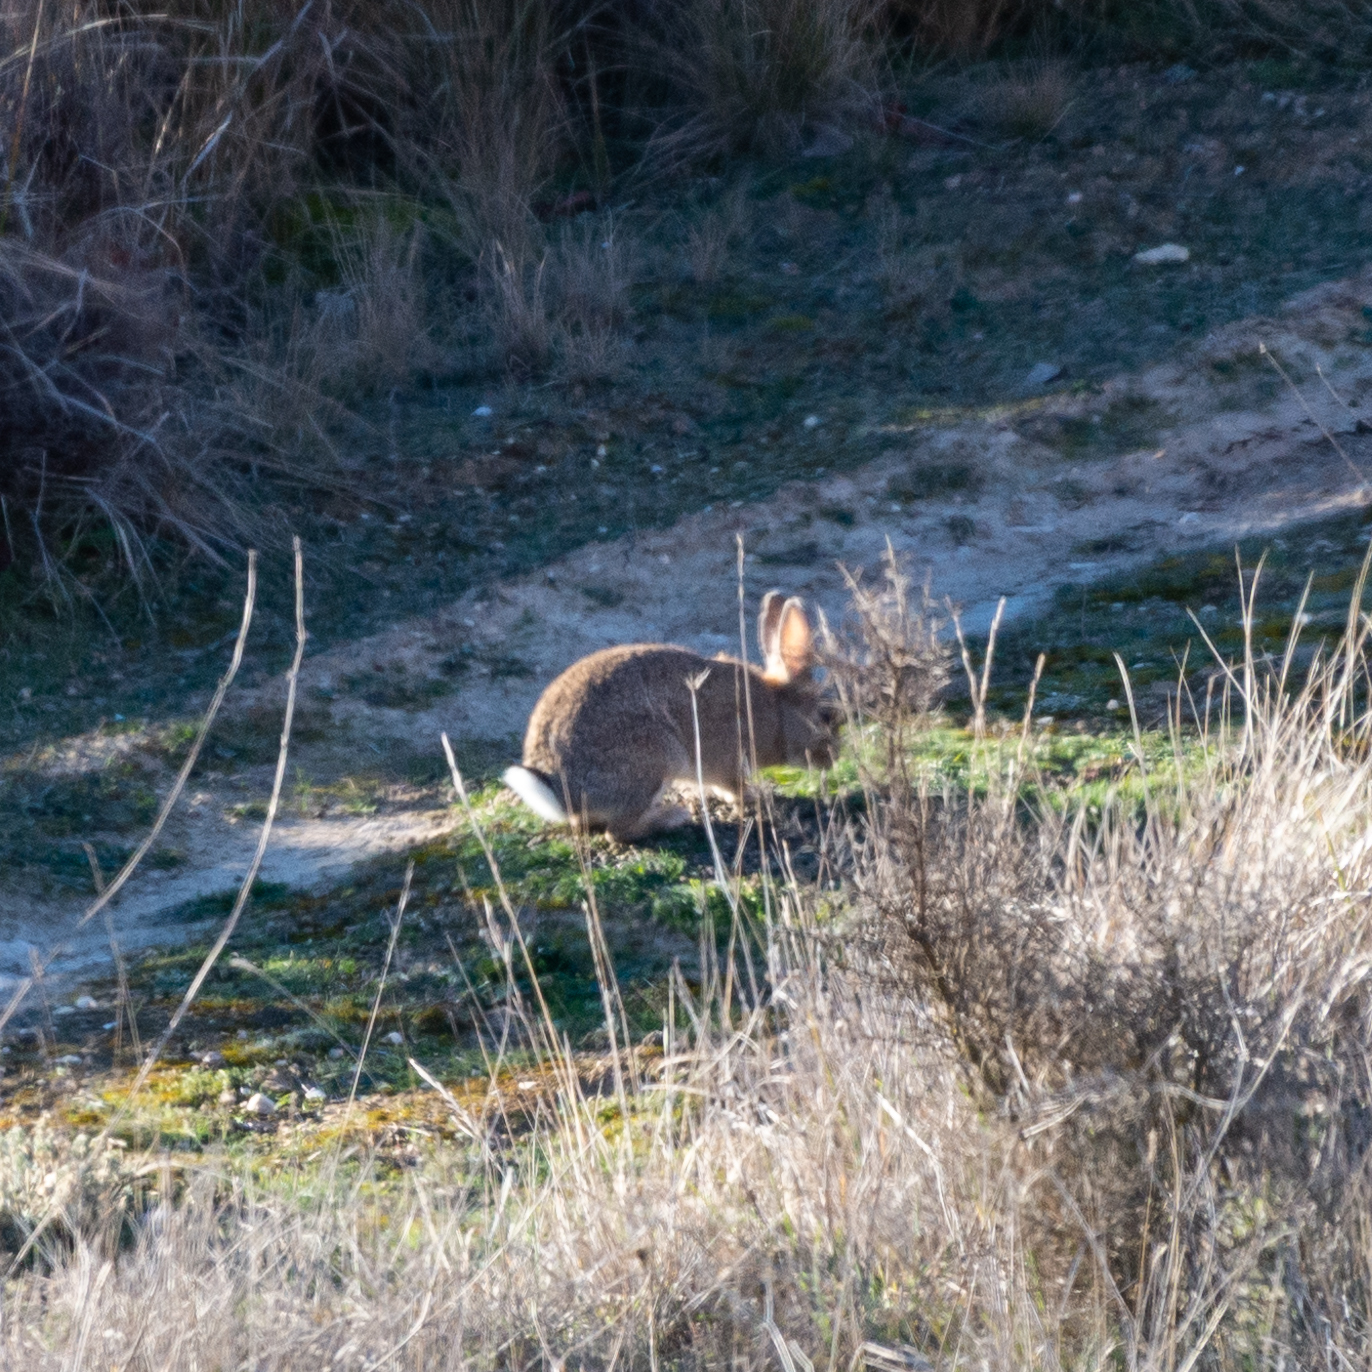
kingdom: Animalia
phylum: Chordata
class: Mammalia
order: Lagomorpha
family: Leporidae
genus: Oryctolagus
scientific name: Oryctolagus cuniculus
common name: European rabbit
